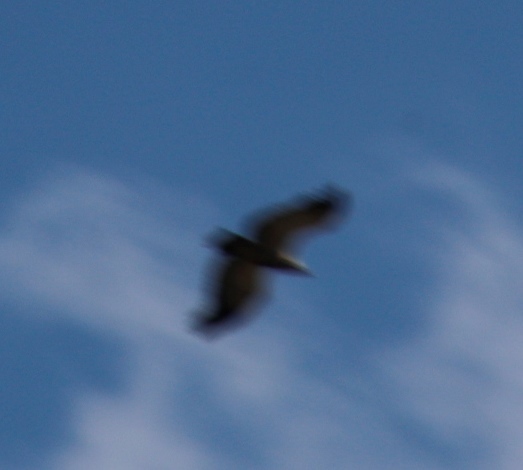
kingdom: Animalia
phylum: Chordata
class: Aves
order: Accipitriformes
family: Accipitridae
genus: Gyps
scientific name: Gyps coprotheres
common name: Cape vulture
